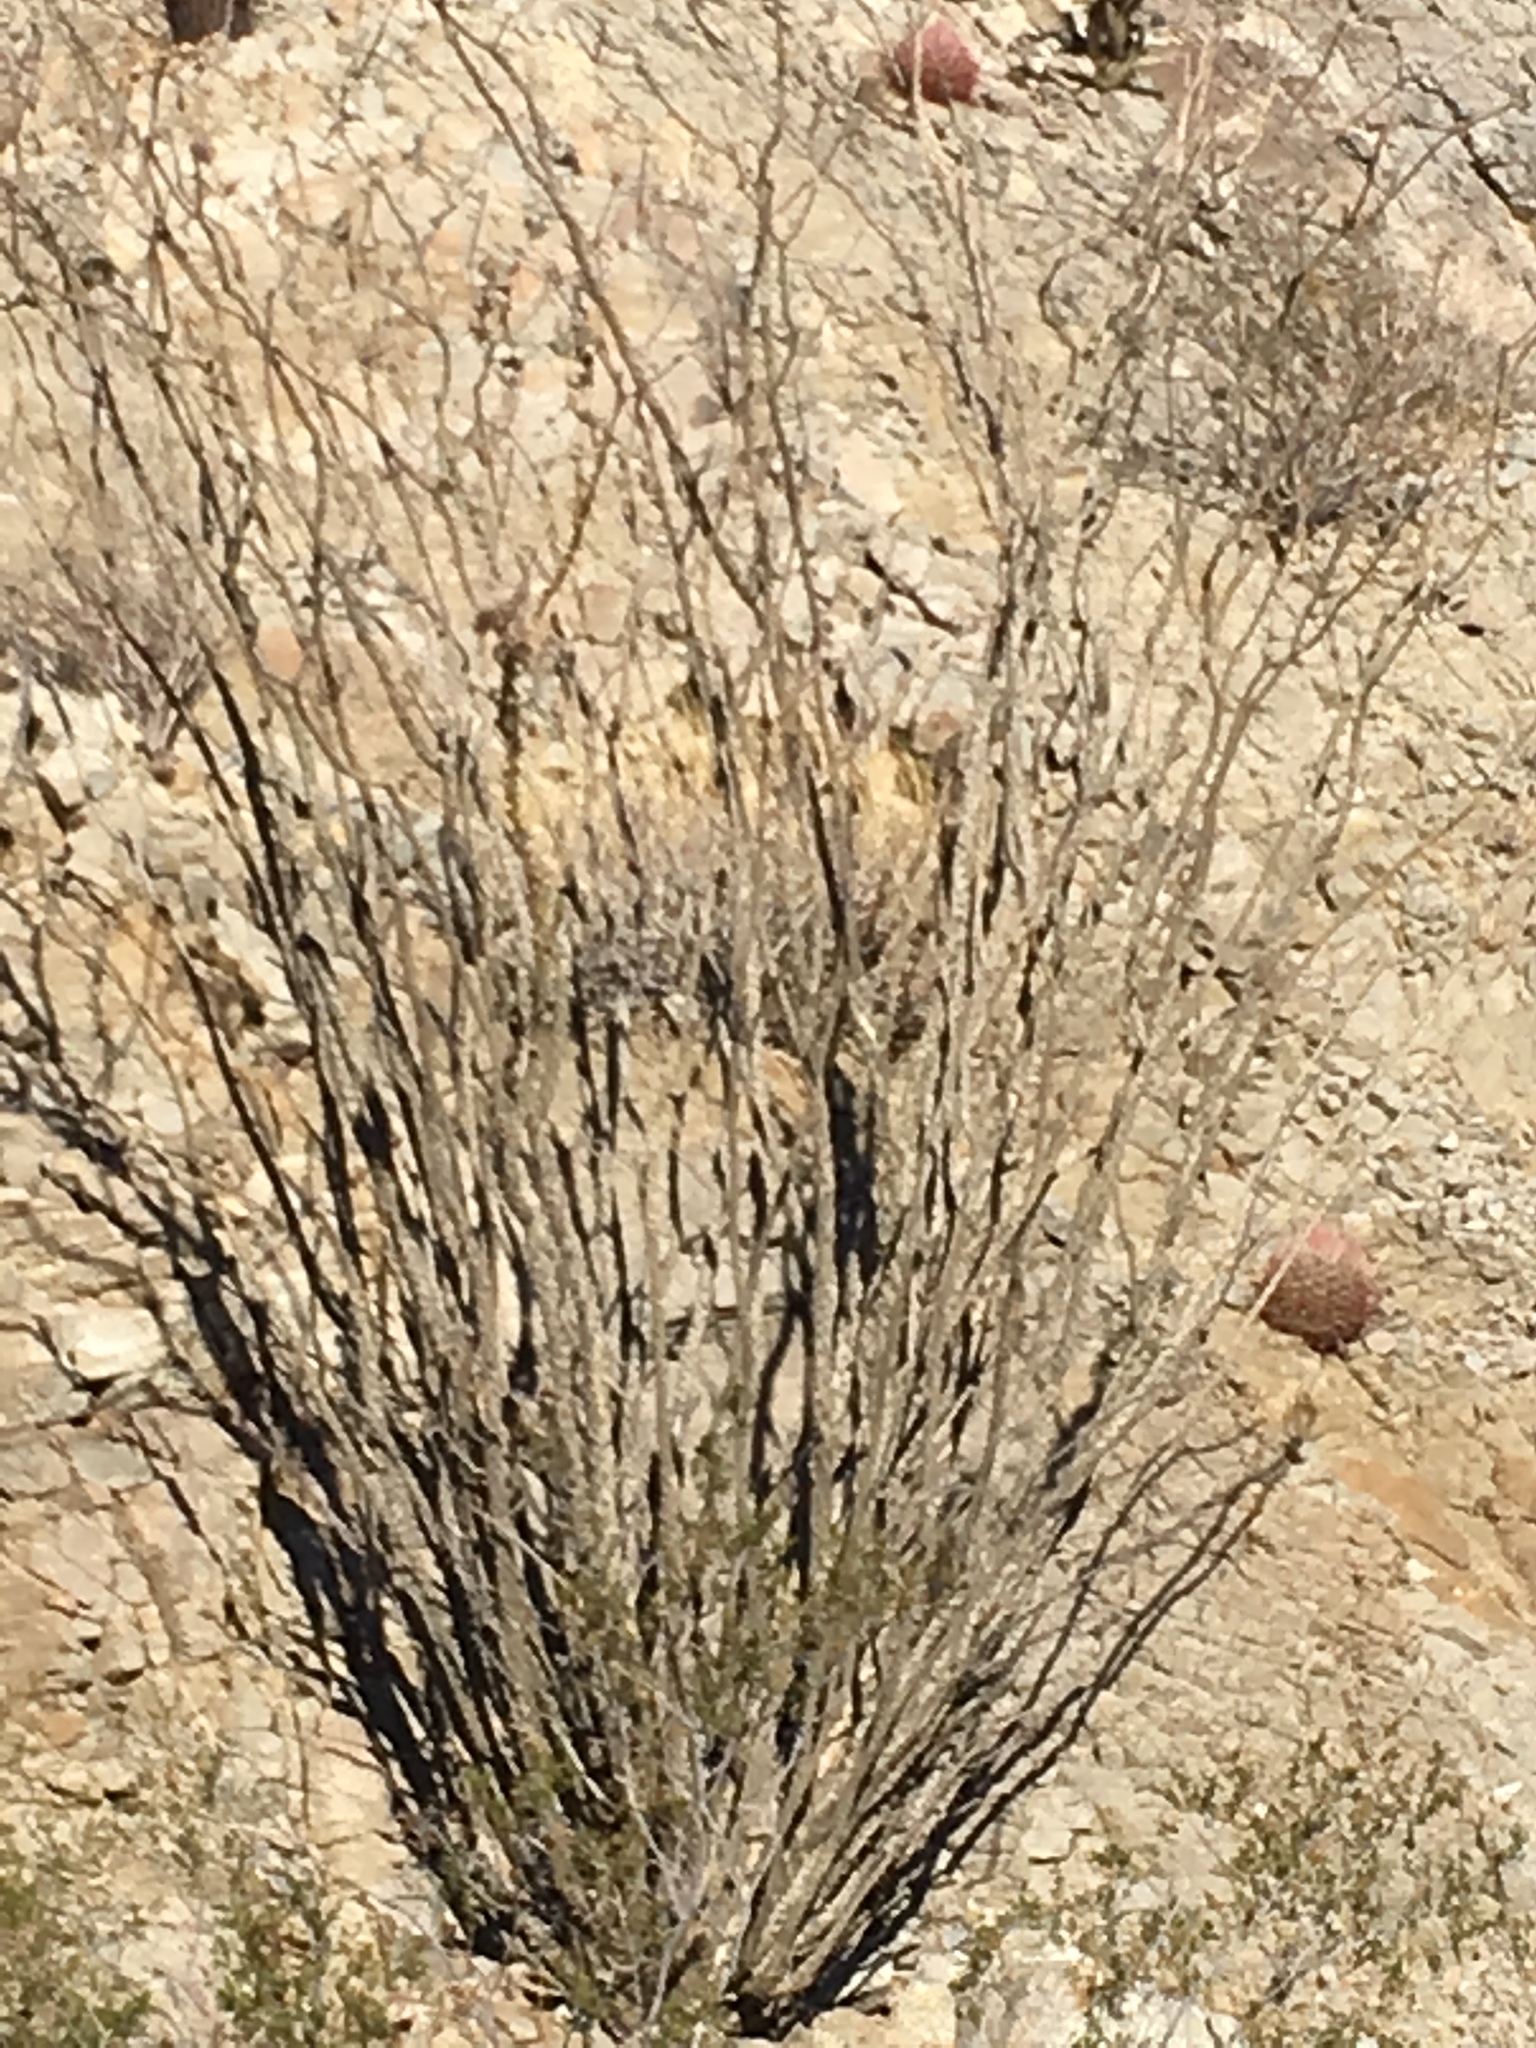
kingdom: Plantae
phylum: Tracheophyta
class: Magnoliopsida
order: Ericales
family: Fouquieriaceae
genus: Fouquieria
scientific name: Fouquieria splendens
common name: Vine-cactus
